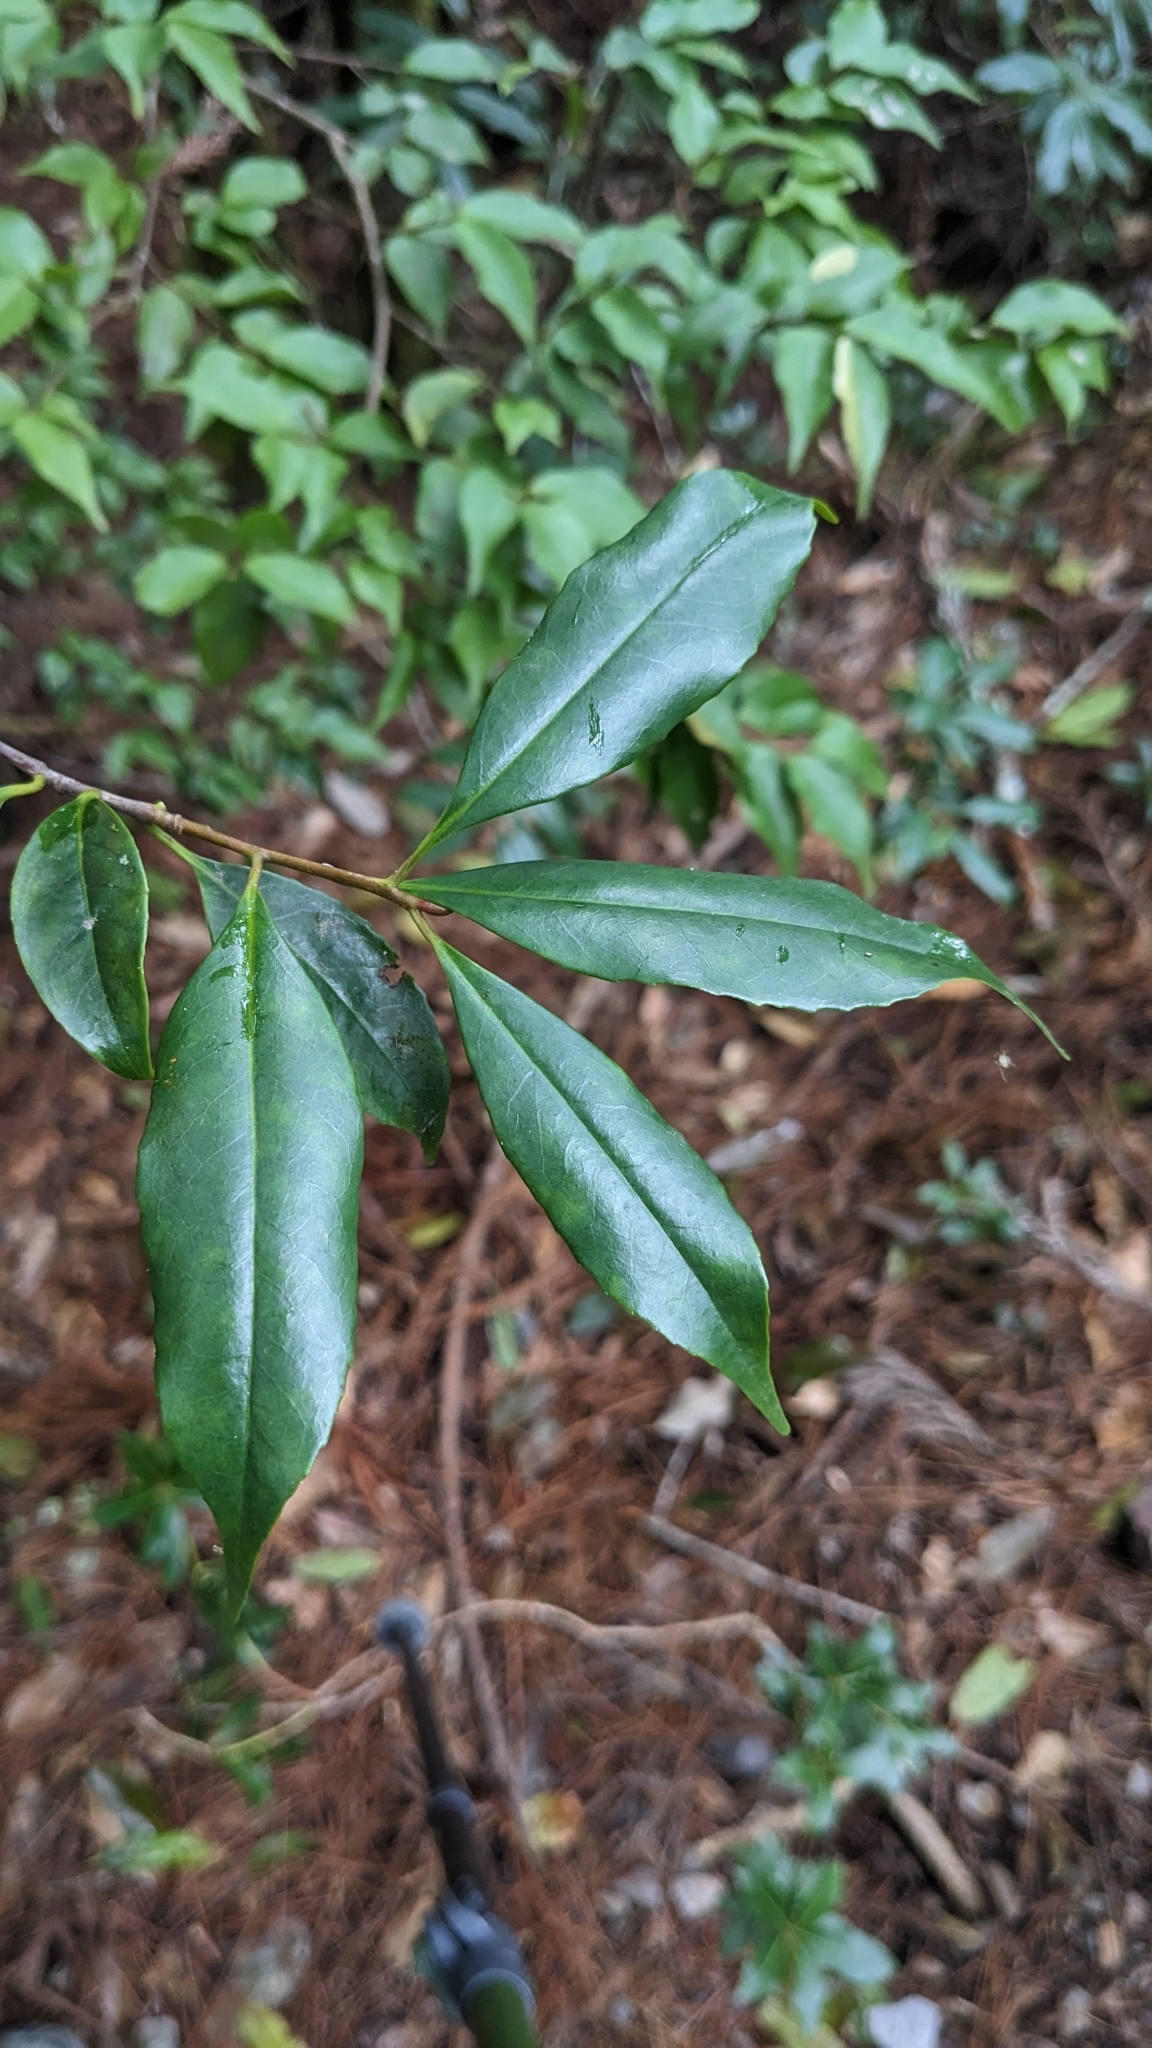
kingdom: Plantae
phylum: Tracheophyta
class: Magnoliopsida
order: Ericales
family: Symplocaceae
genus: Symplocos
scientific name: Symplocos heishanensis
